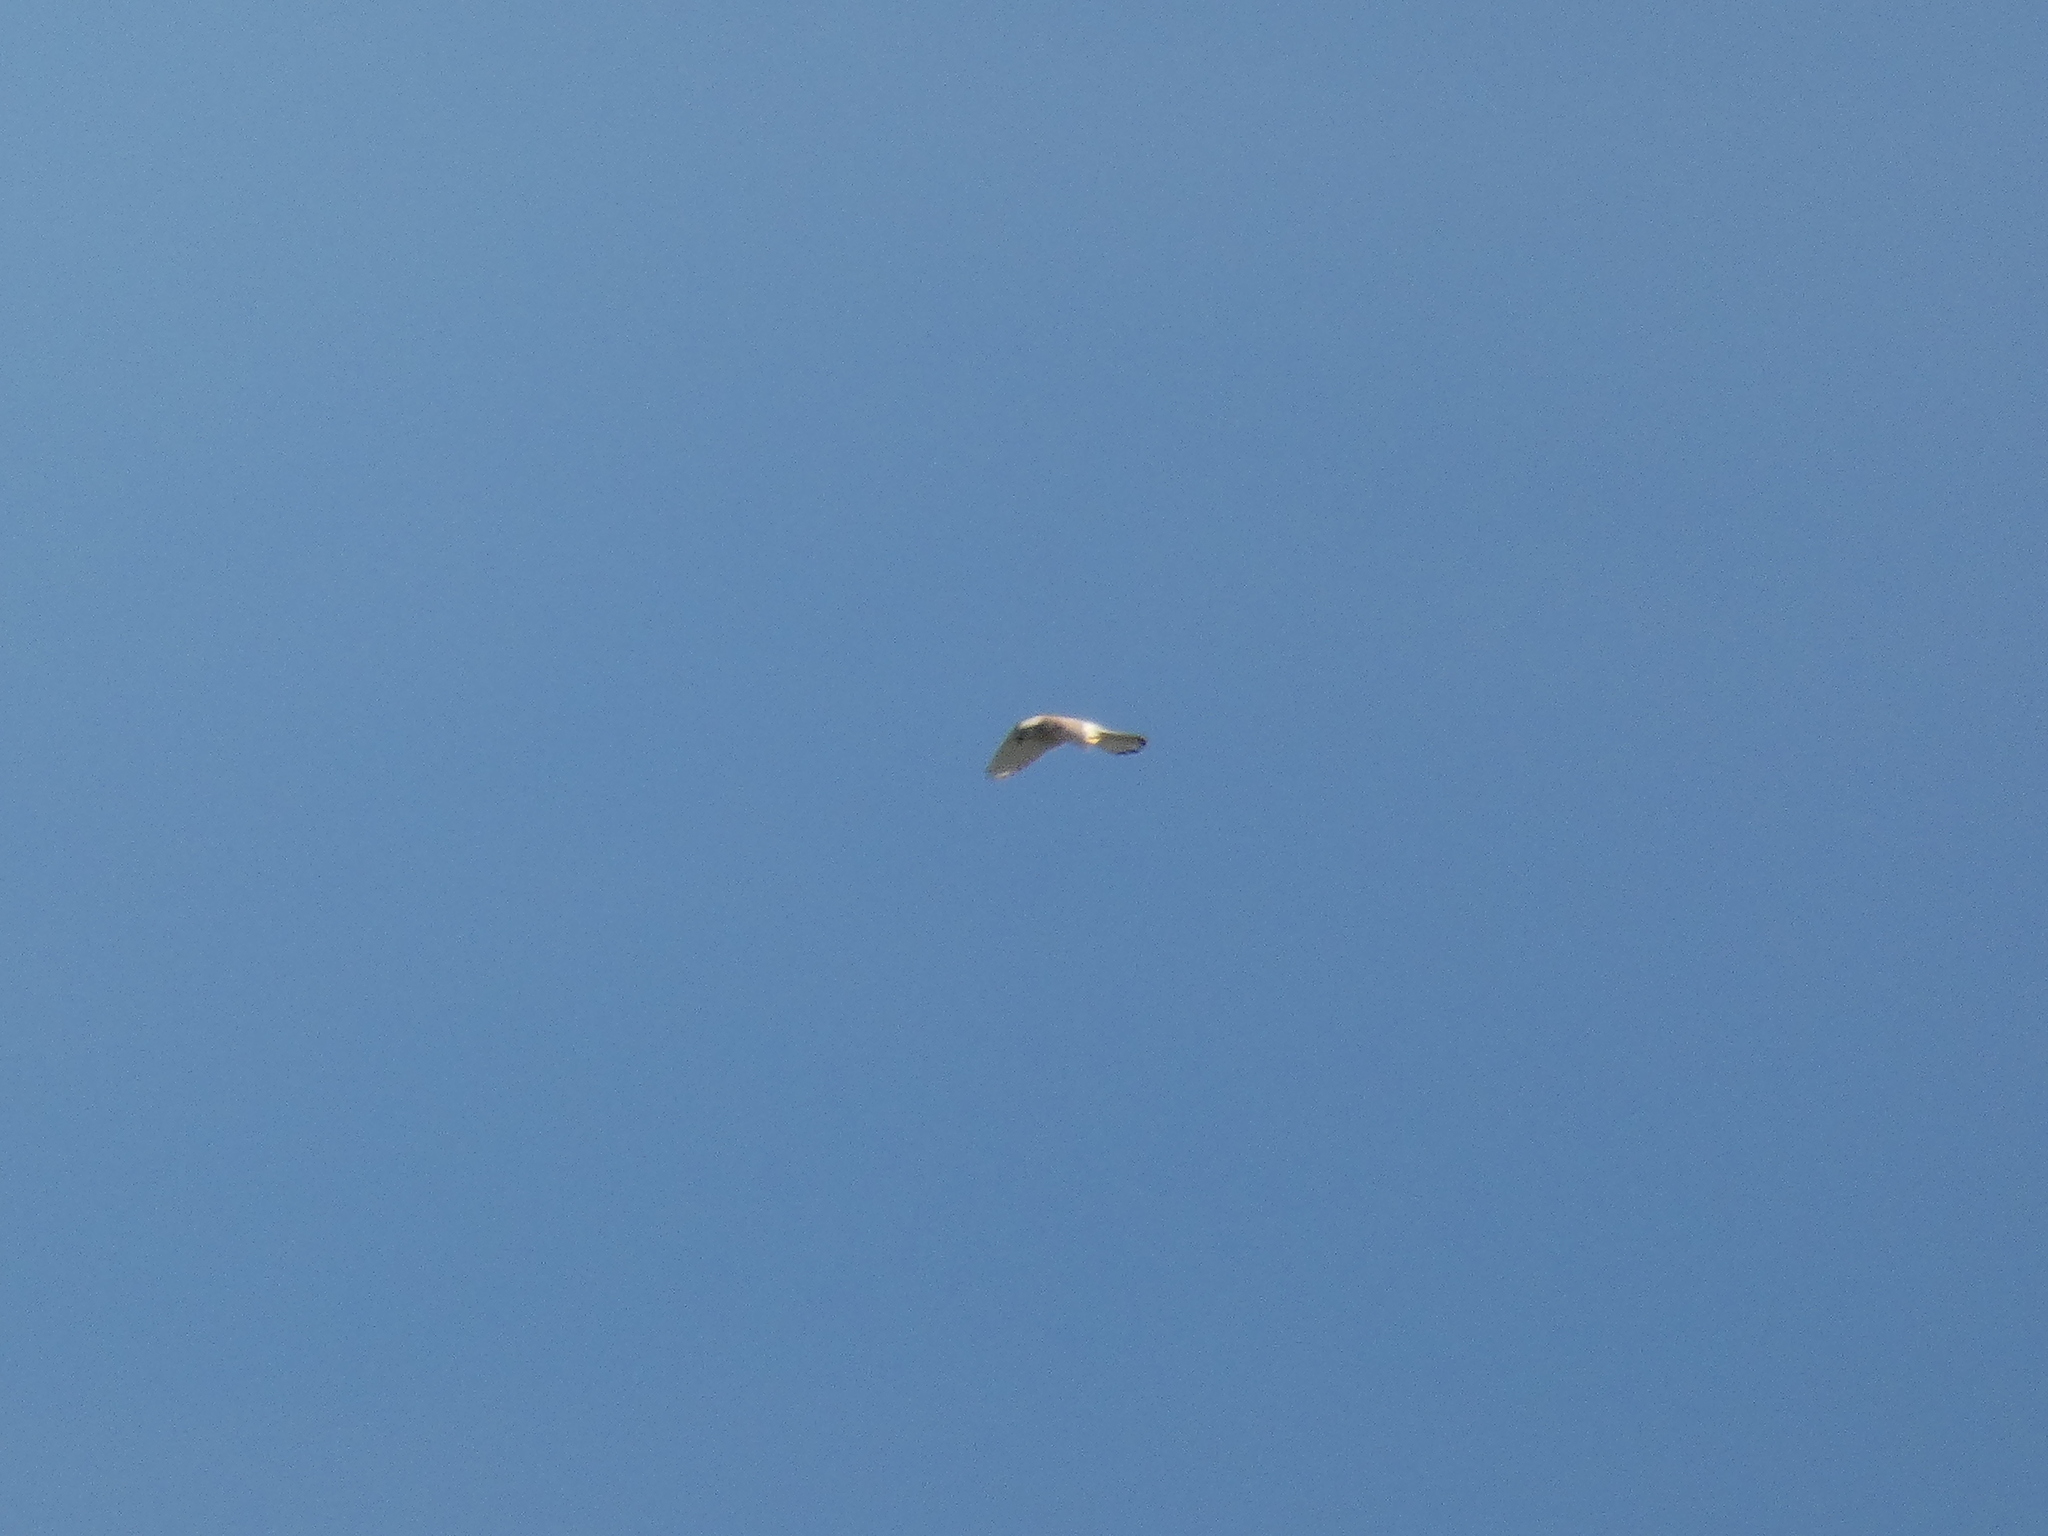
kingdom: Animalia
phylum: Chordata
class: Aves
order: Falconiformes
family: Falconidae
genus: Falco
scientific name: Falco tinnunculus
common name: Common kestrel
